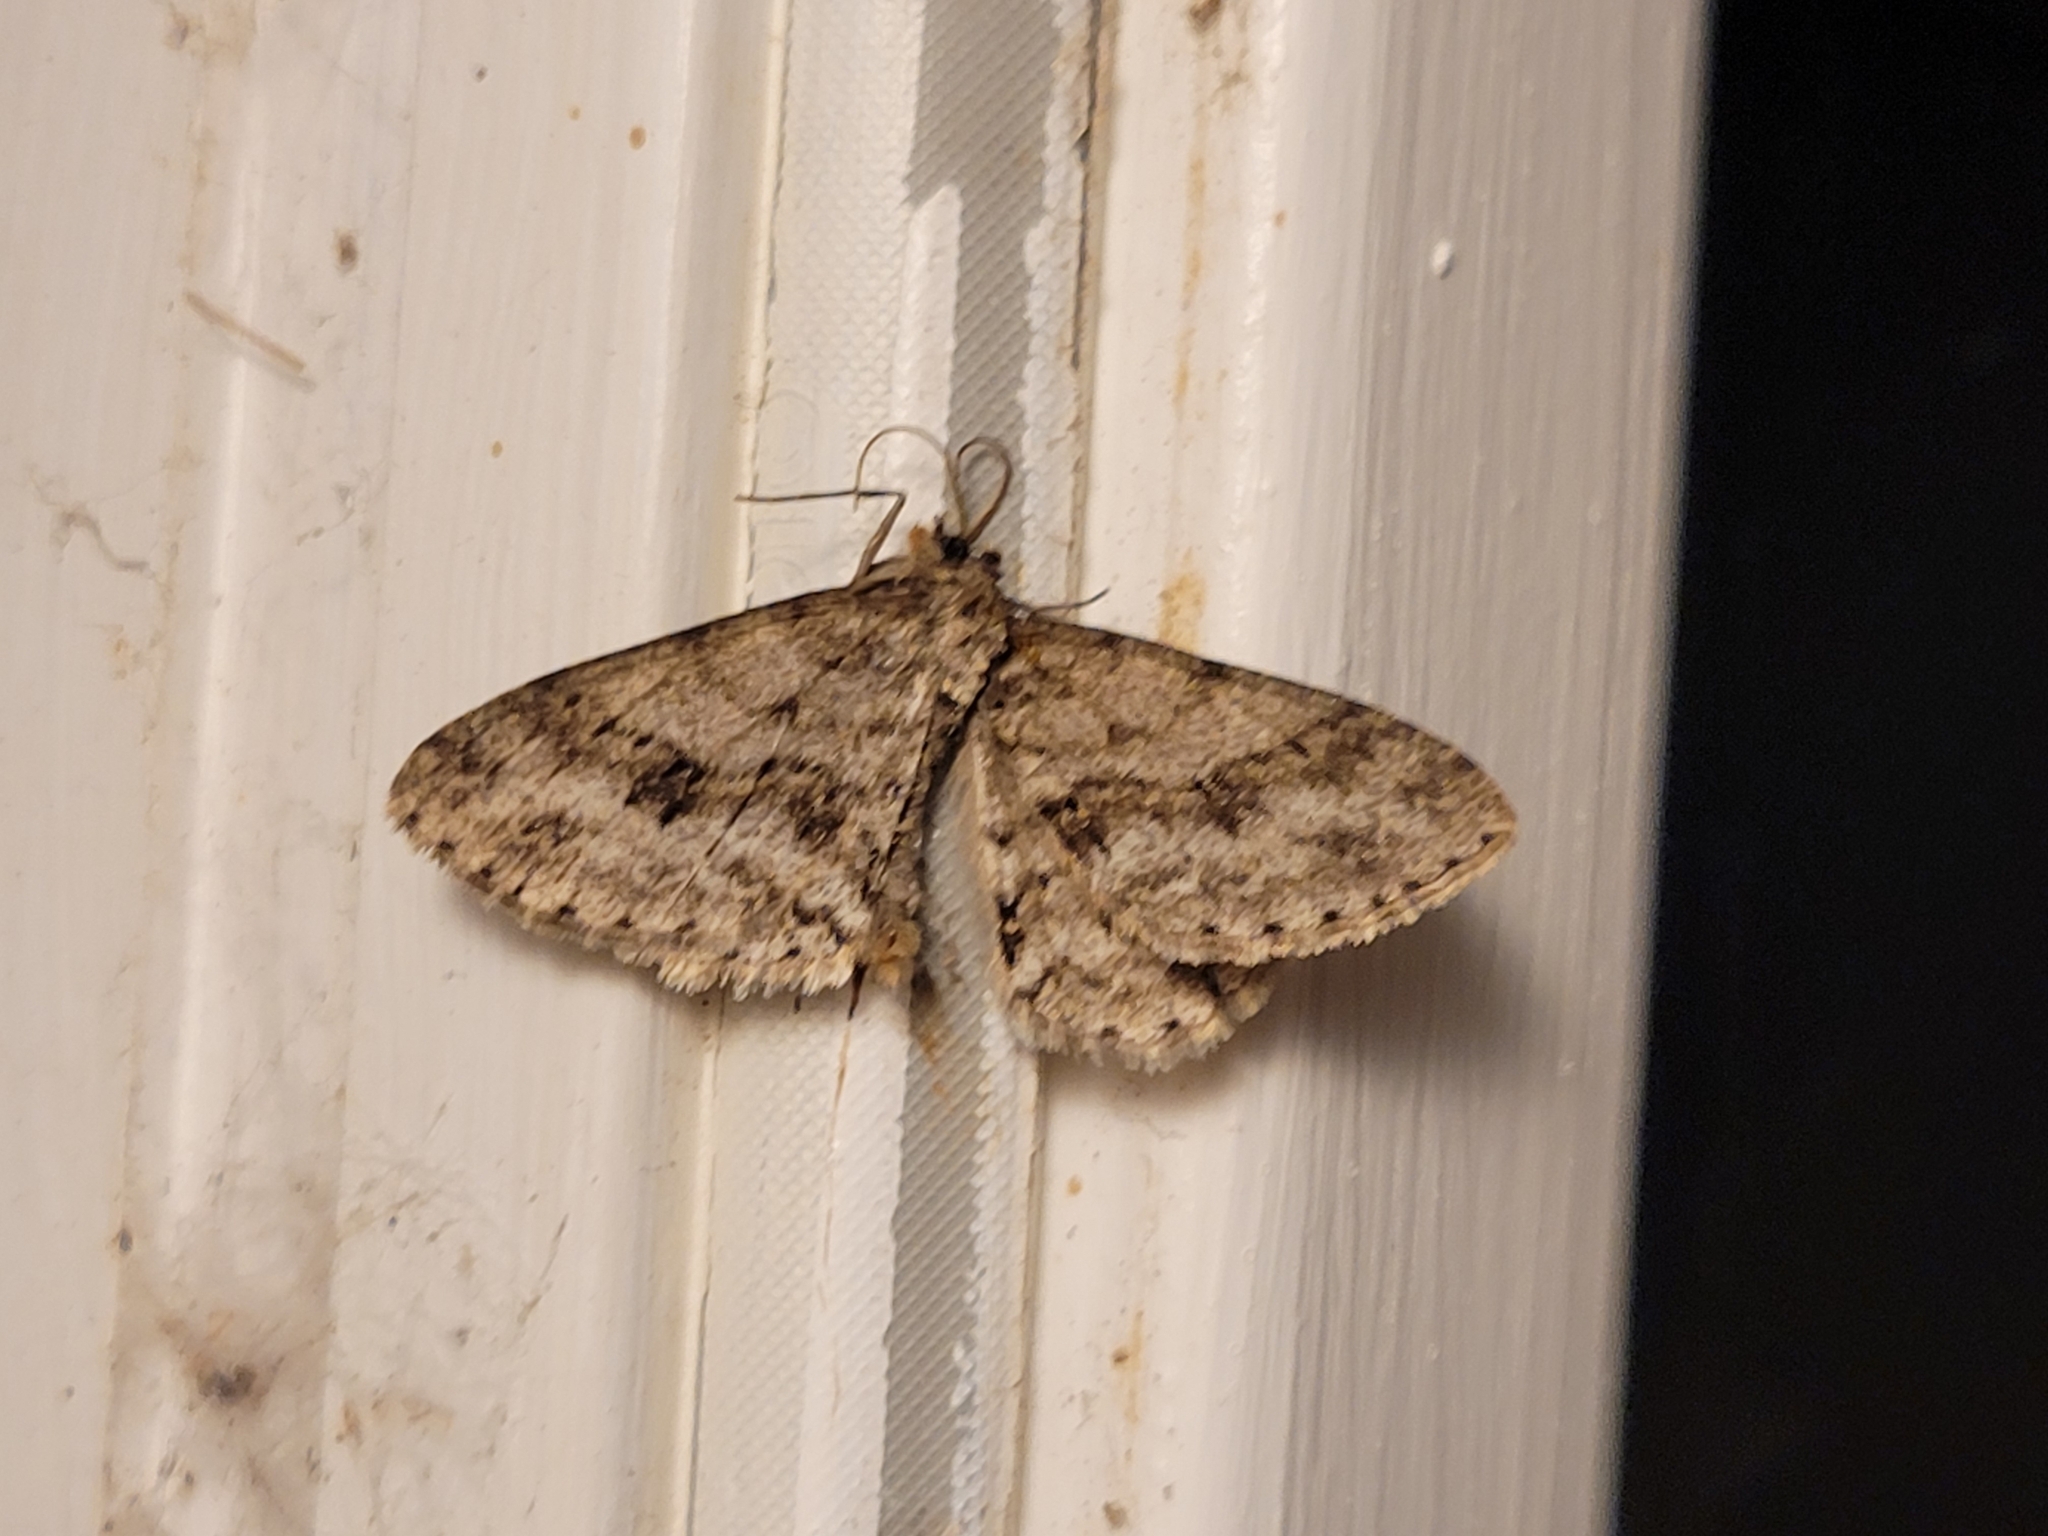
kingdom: Animalia
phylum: Arthropoda
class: Insecta
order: Lepidoptera
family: Geometridae
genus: Ectropis
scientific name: Ectropis crepuscularia
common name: Engrailed
